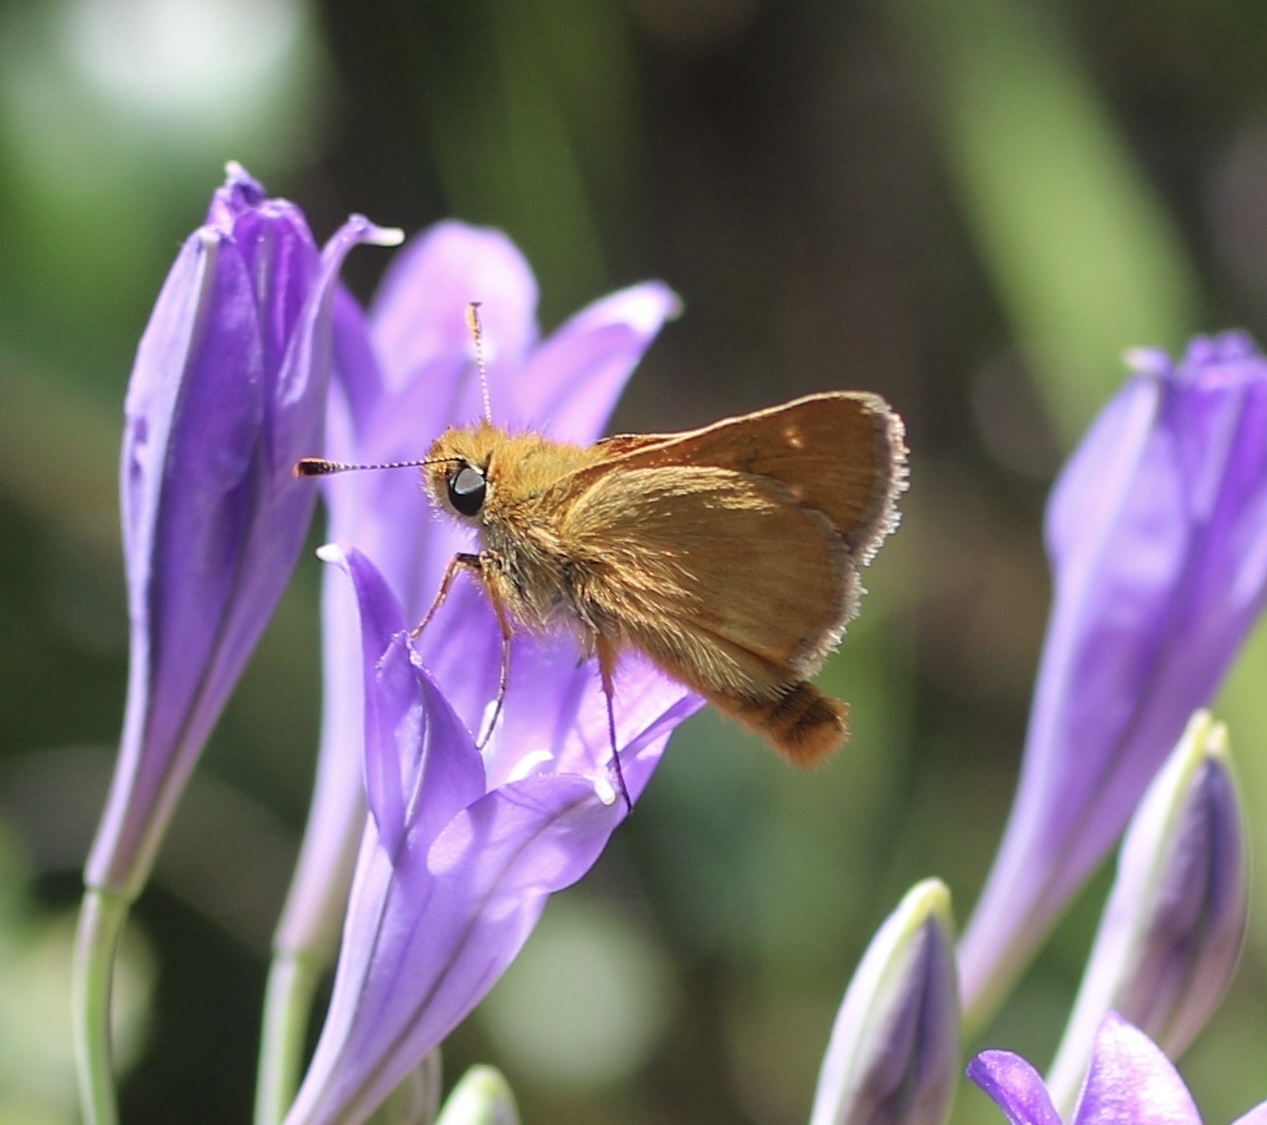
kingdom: Animalia
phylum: Arthropoda
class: Insecta
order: Lepidoptera
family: Hesperiidae
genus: Ochlodes
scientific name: Ochlodes agricola
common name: Rural skipper
